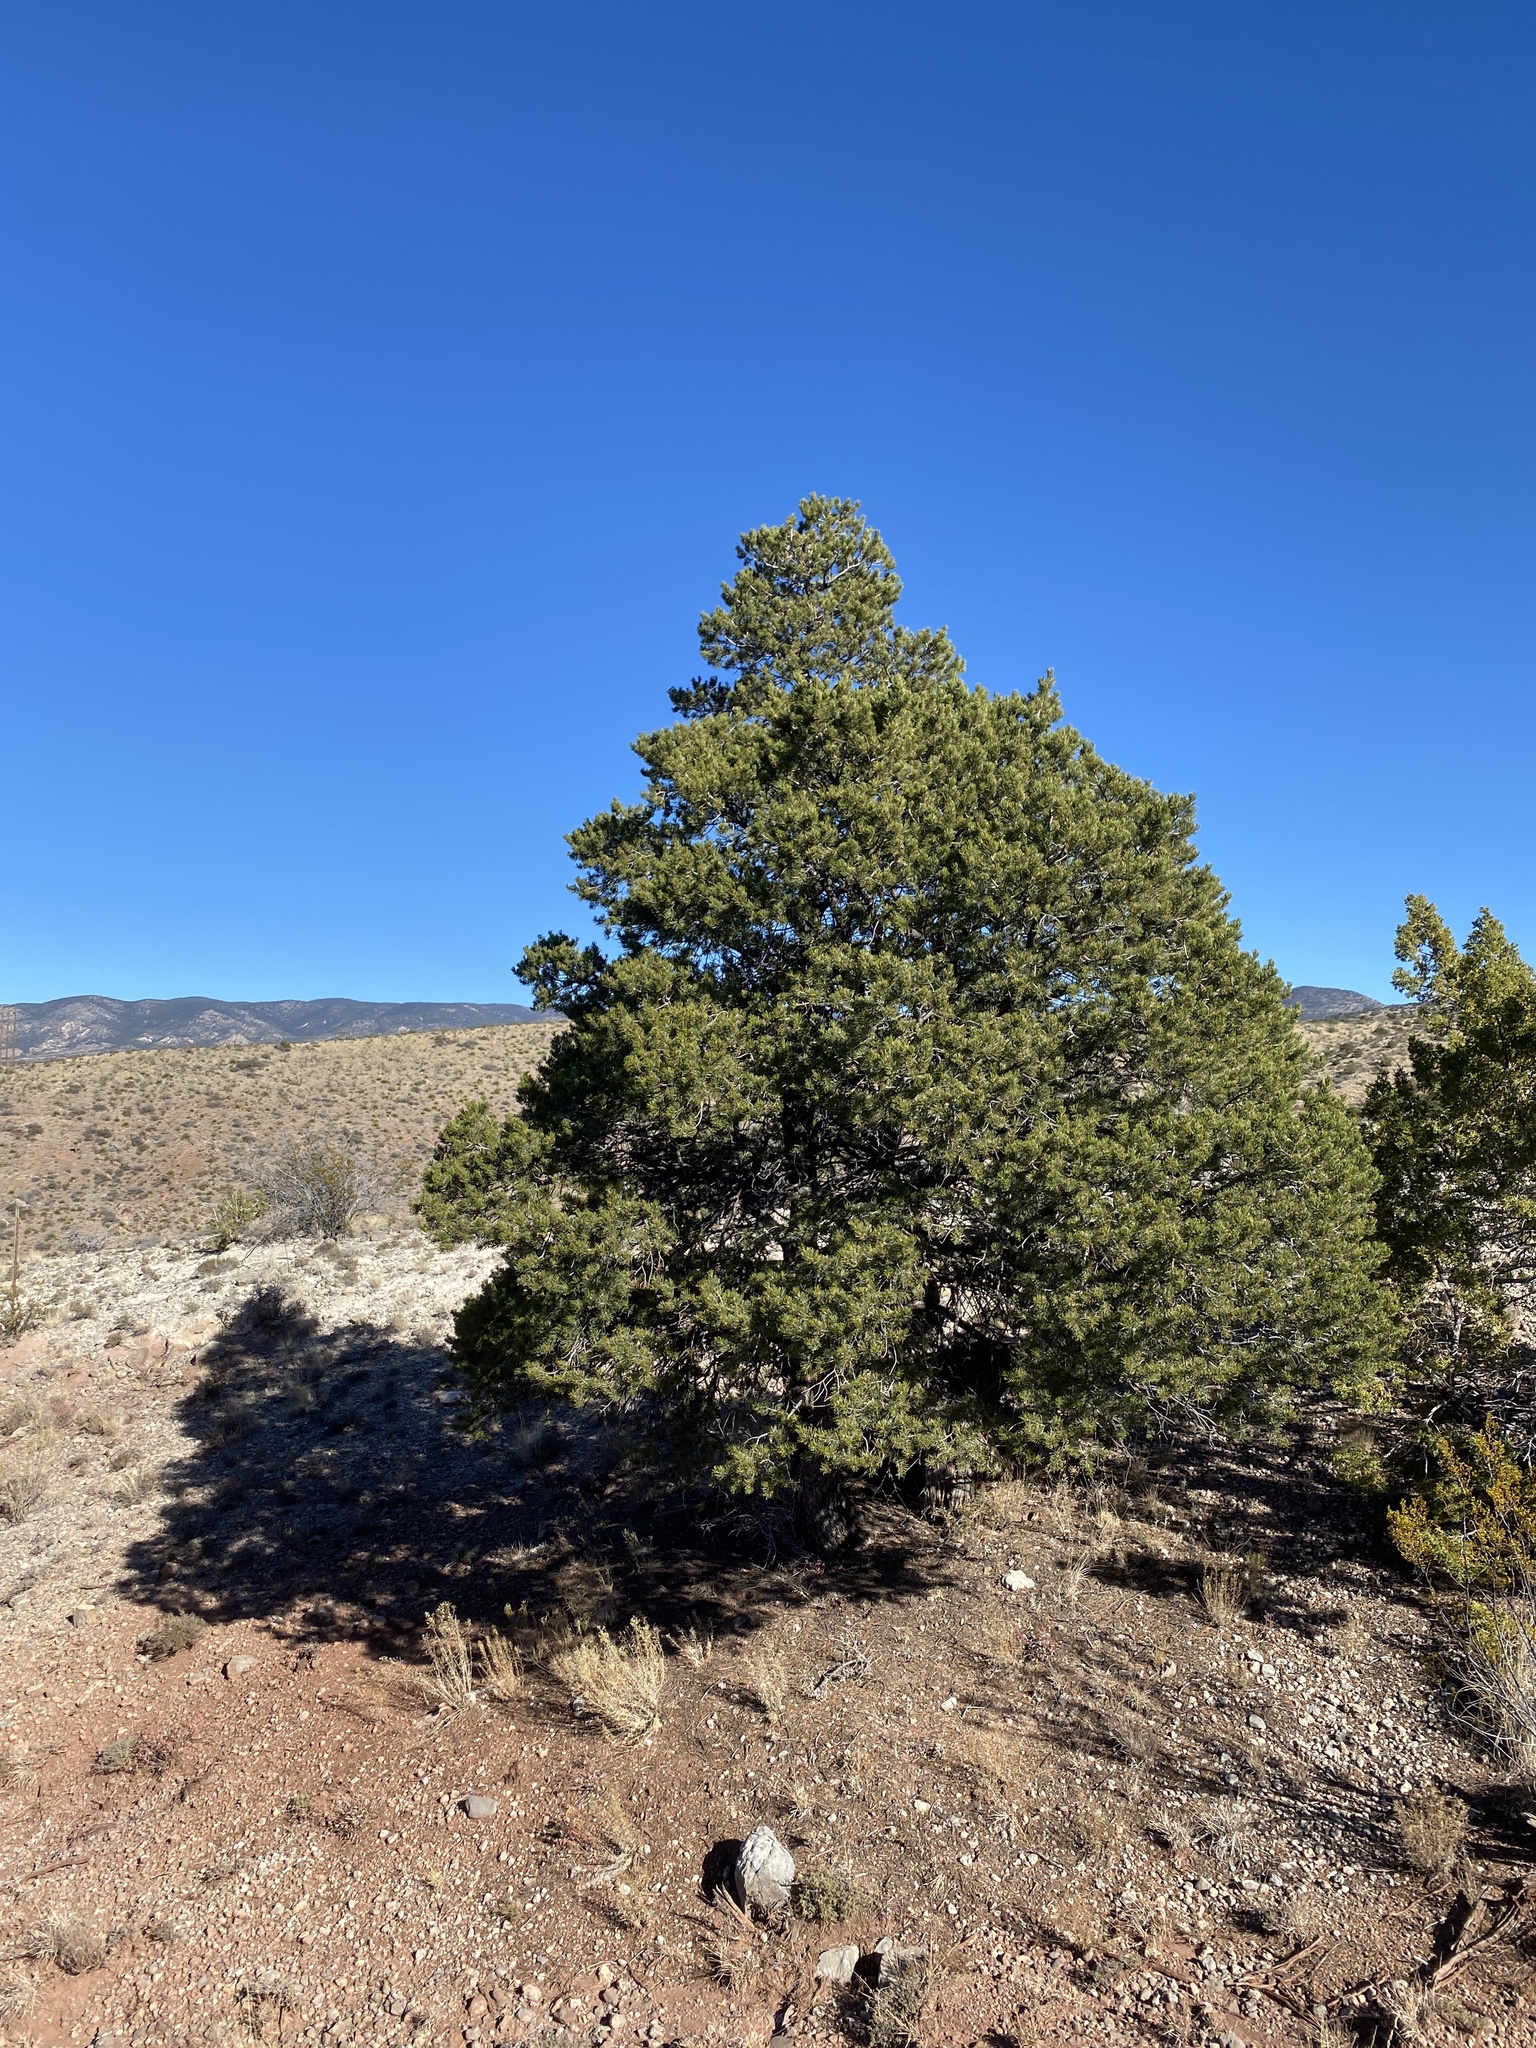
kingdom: Plantae
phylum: Tracheophyta
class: Pinopsida
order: Pinales
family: Pinaceae
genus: Pinus
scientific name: Pinus edulis
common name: Colorado pinyon
